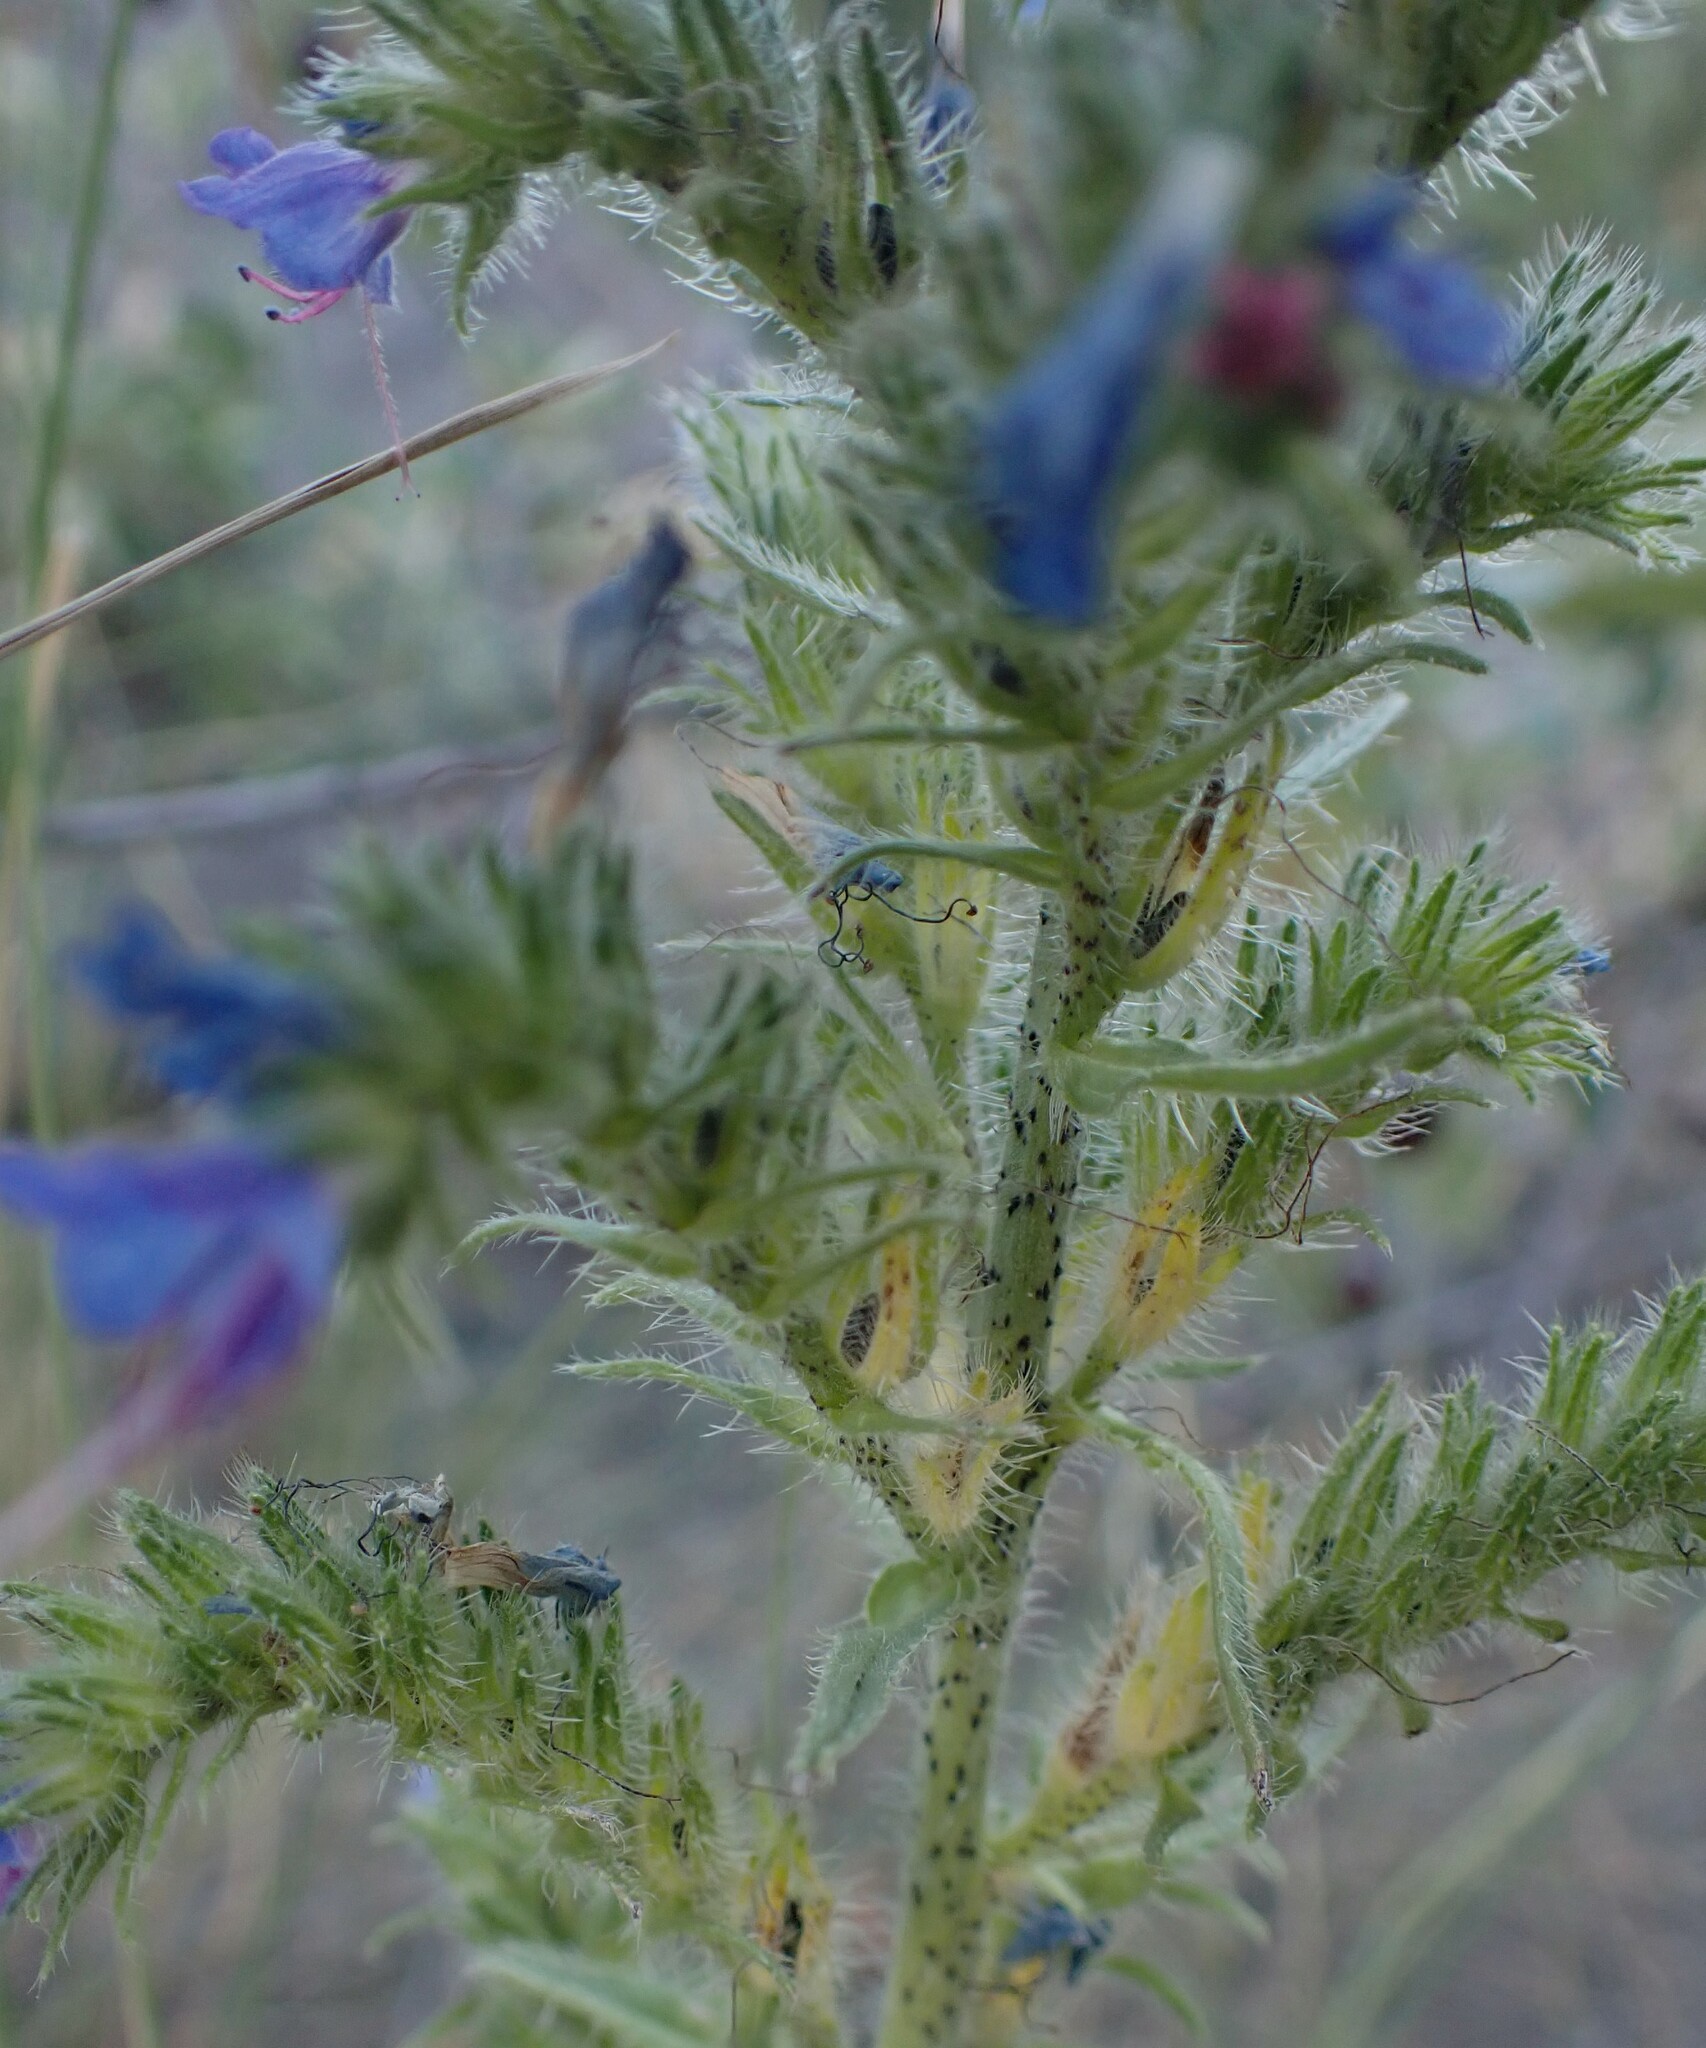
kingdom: Plantae
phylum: Tracheophyta
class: Magnoliopsida
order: Boraginales
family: Boraginaceae
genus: Echium
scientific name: Echium vulgare
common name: Common viper's bugloss
